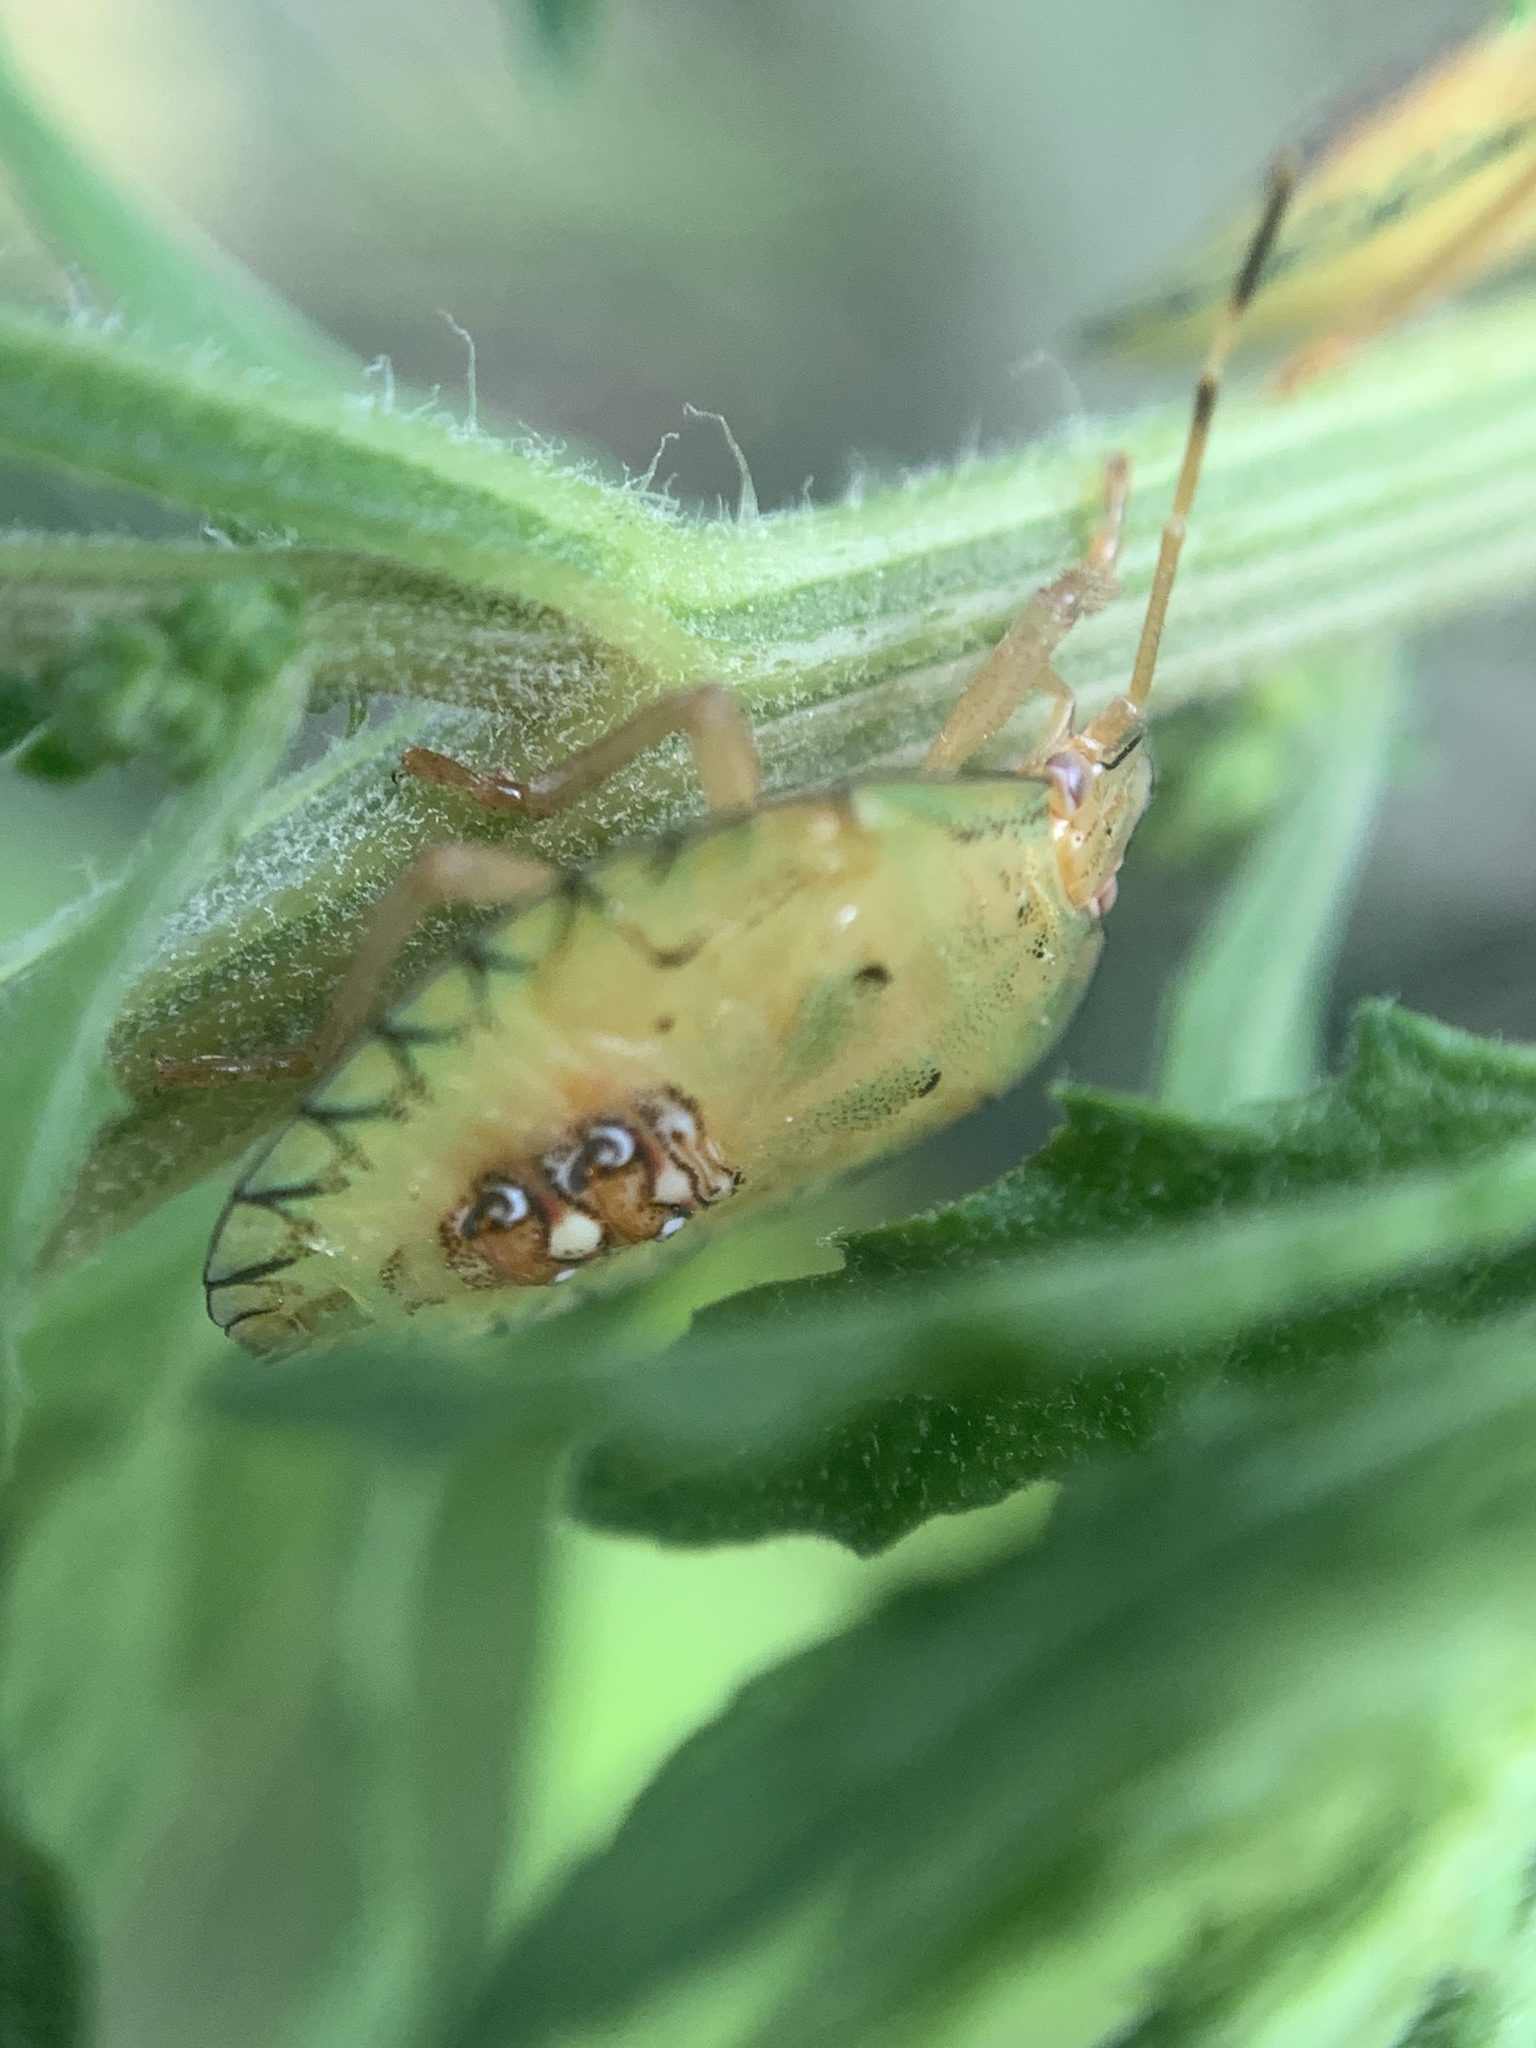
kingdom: Animalia
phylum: Arthropoda
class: Insecta
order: Hemiptera
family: Pentatomidae
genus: Edessa
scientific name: Edessa meditabunda
